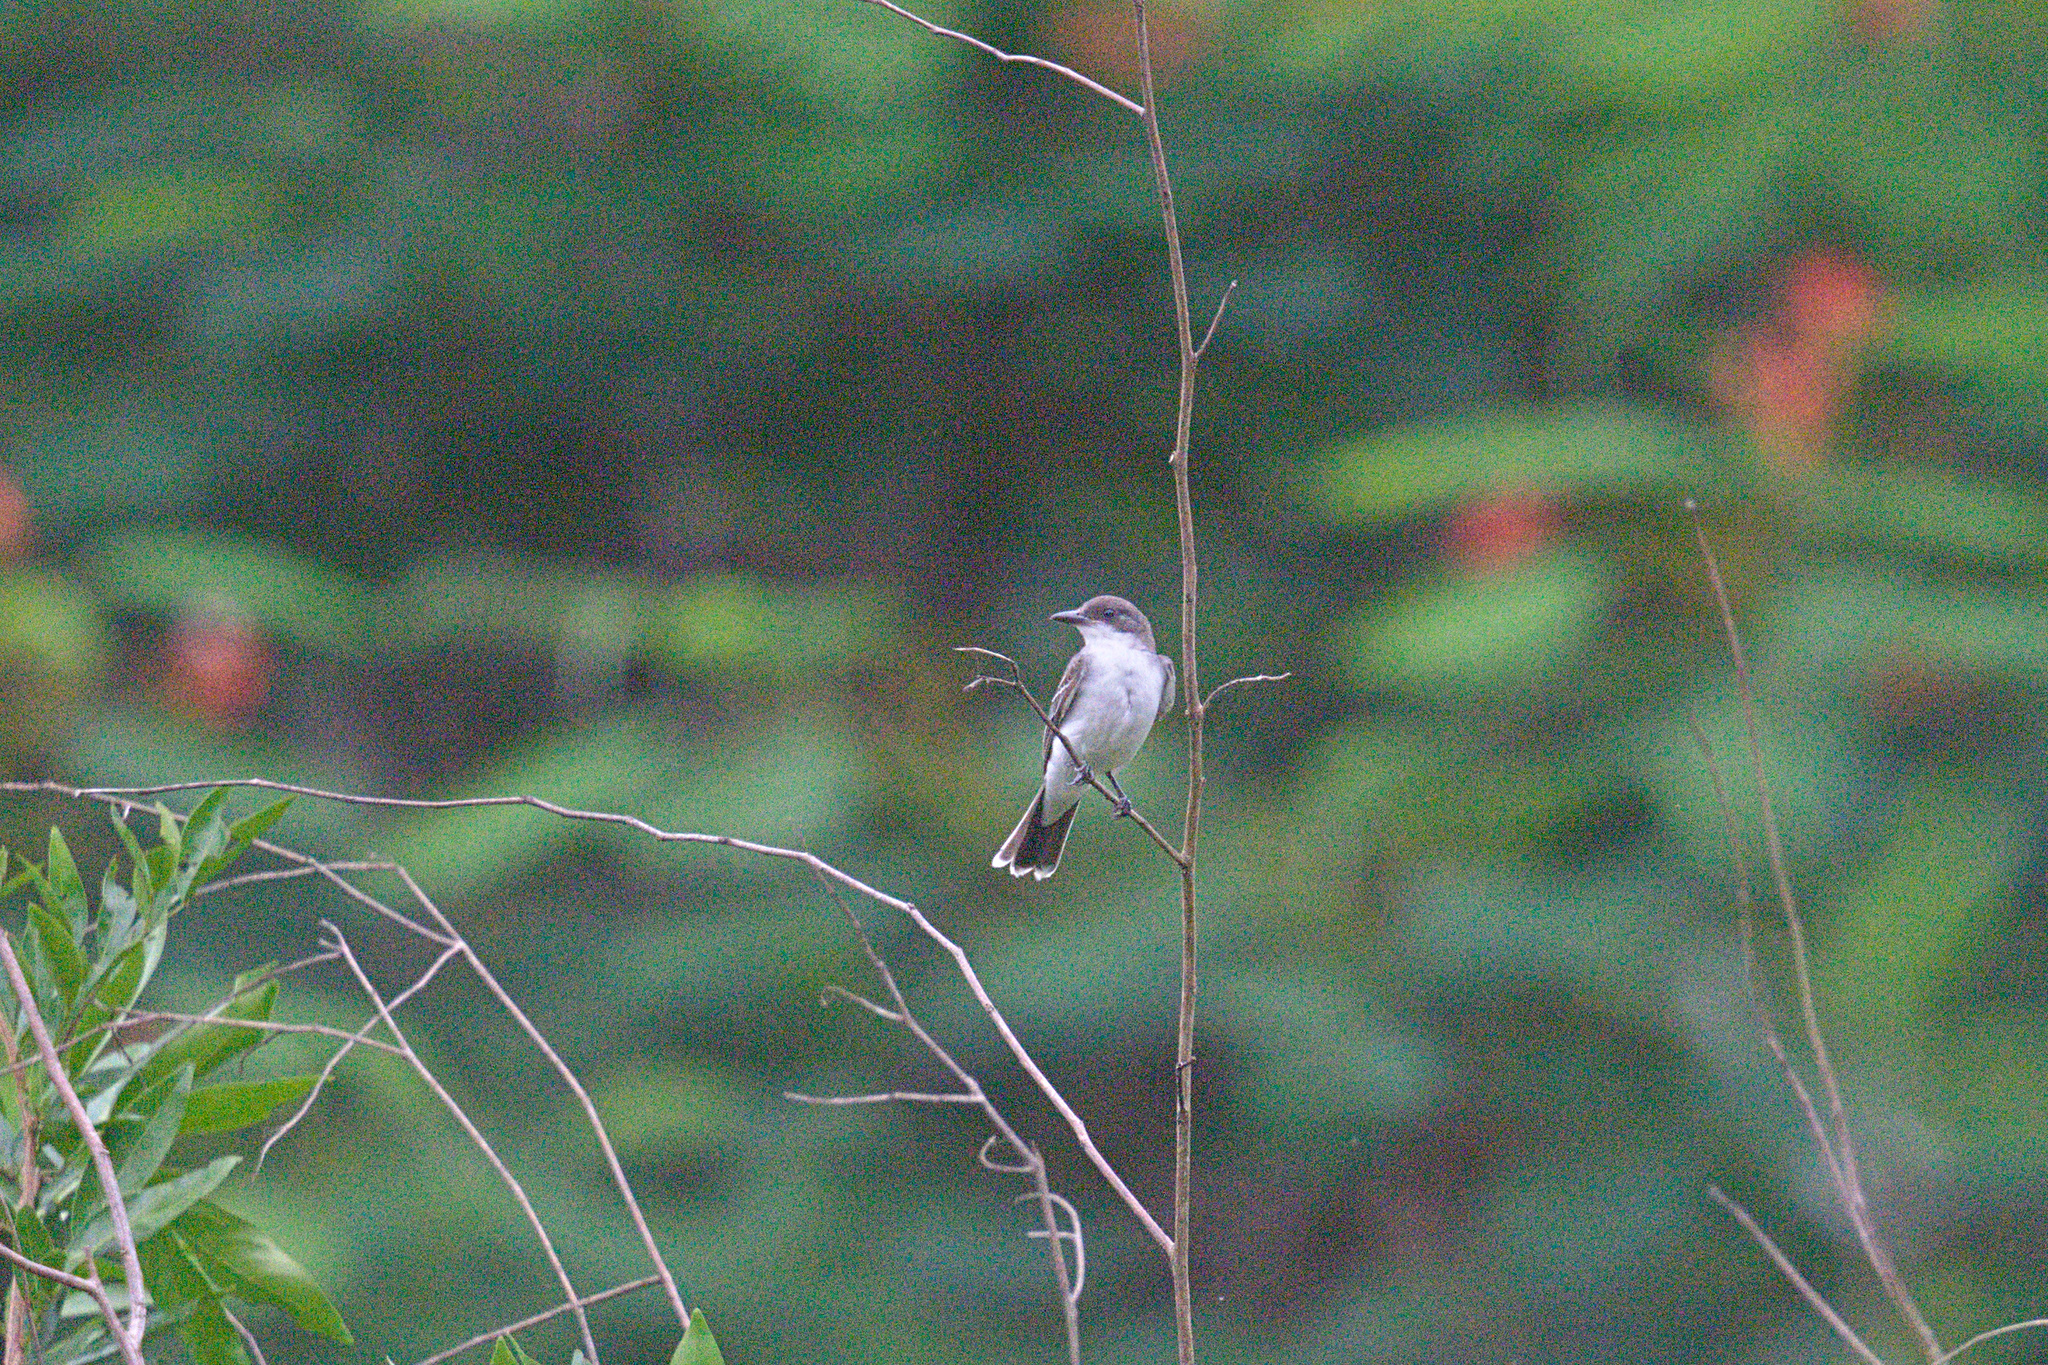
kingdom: Animalia
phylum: Chordata
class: Aves
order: Passeriformes
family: Tyrannidae
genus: Tyrannus
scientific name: Tyrannus tyrannus
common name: Eastern kingbird
